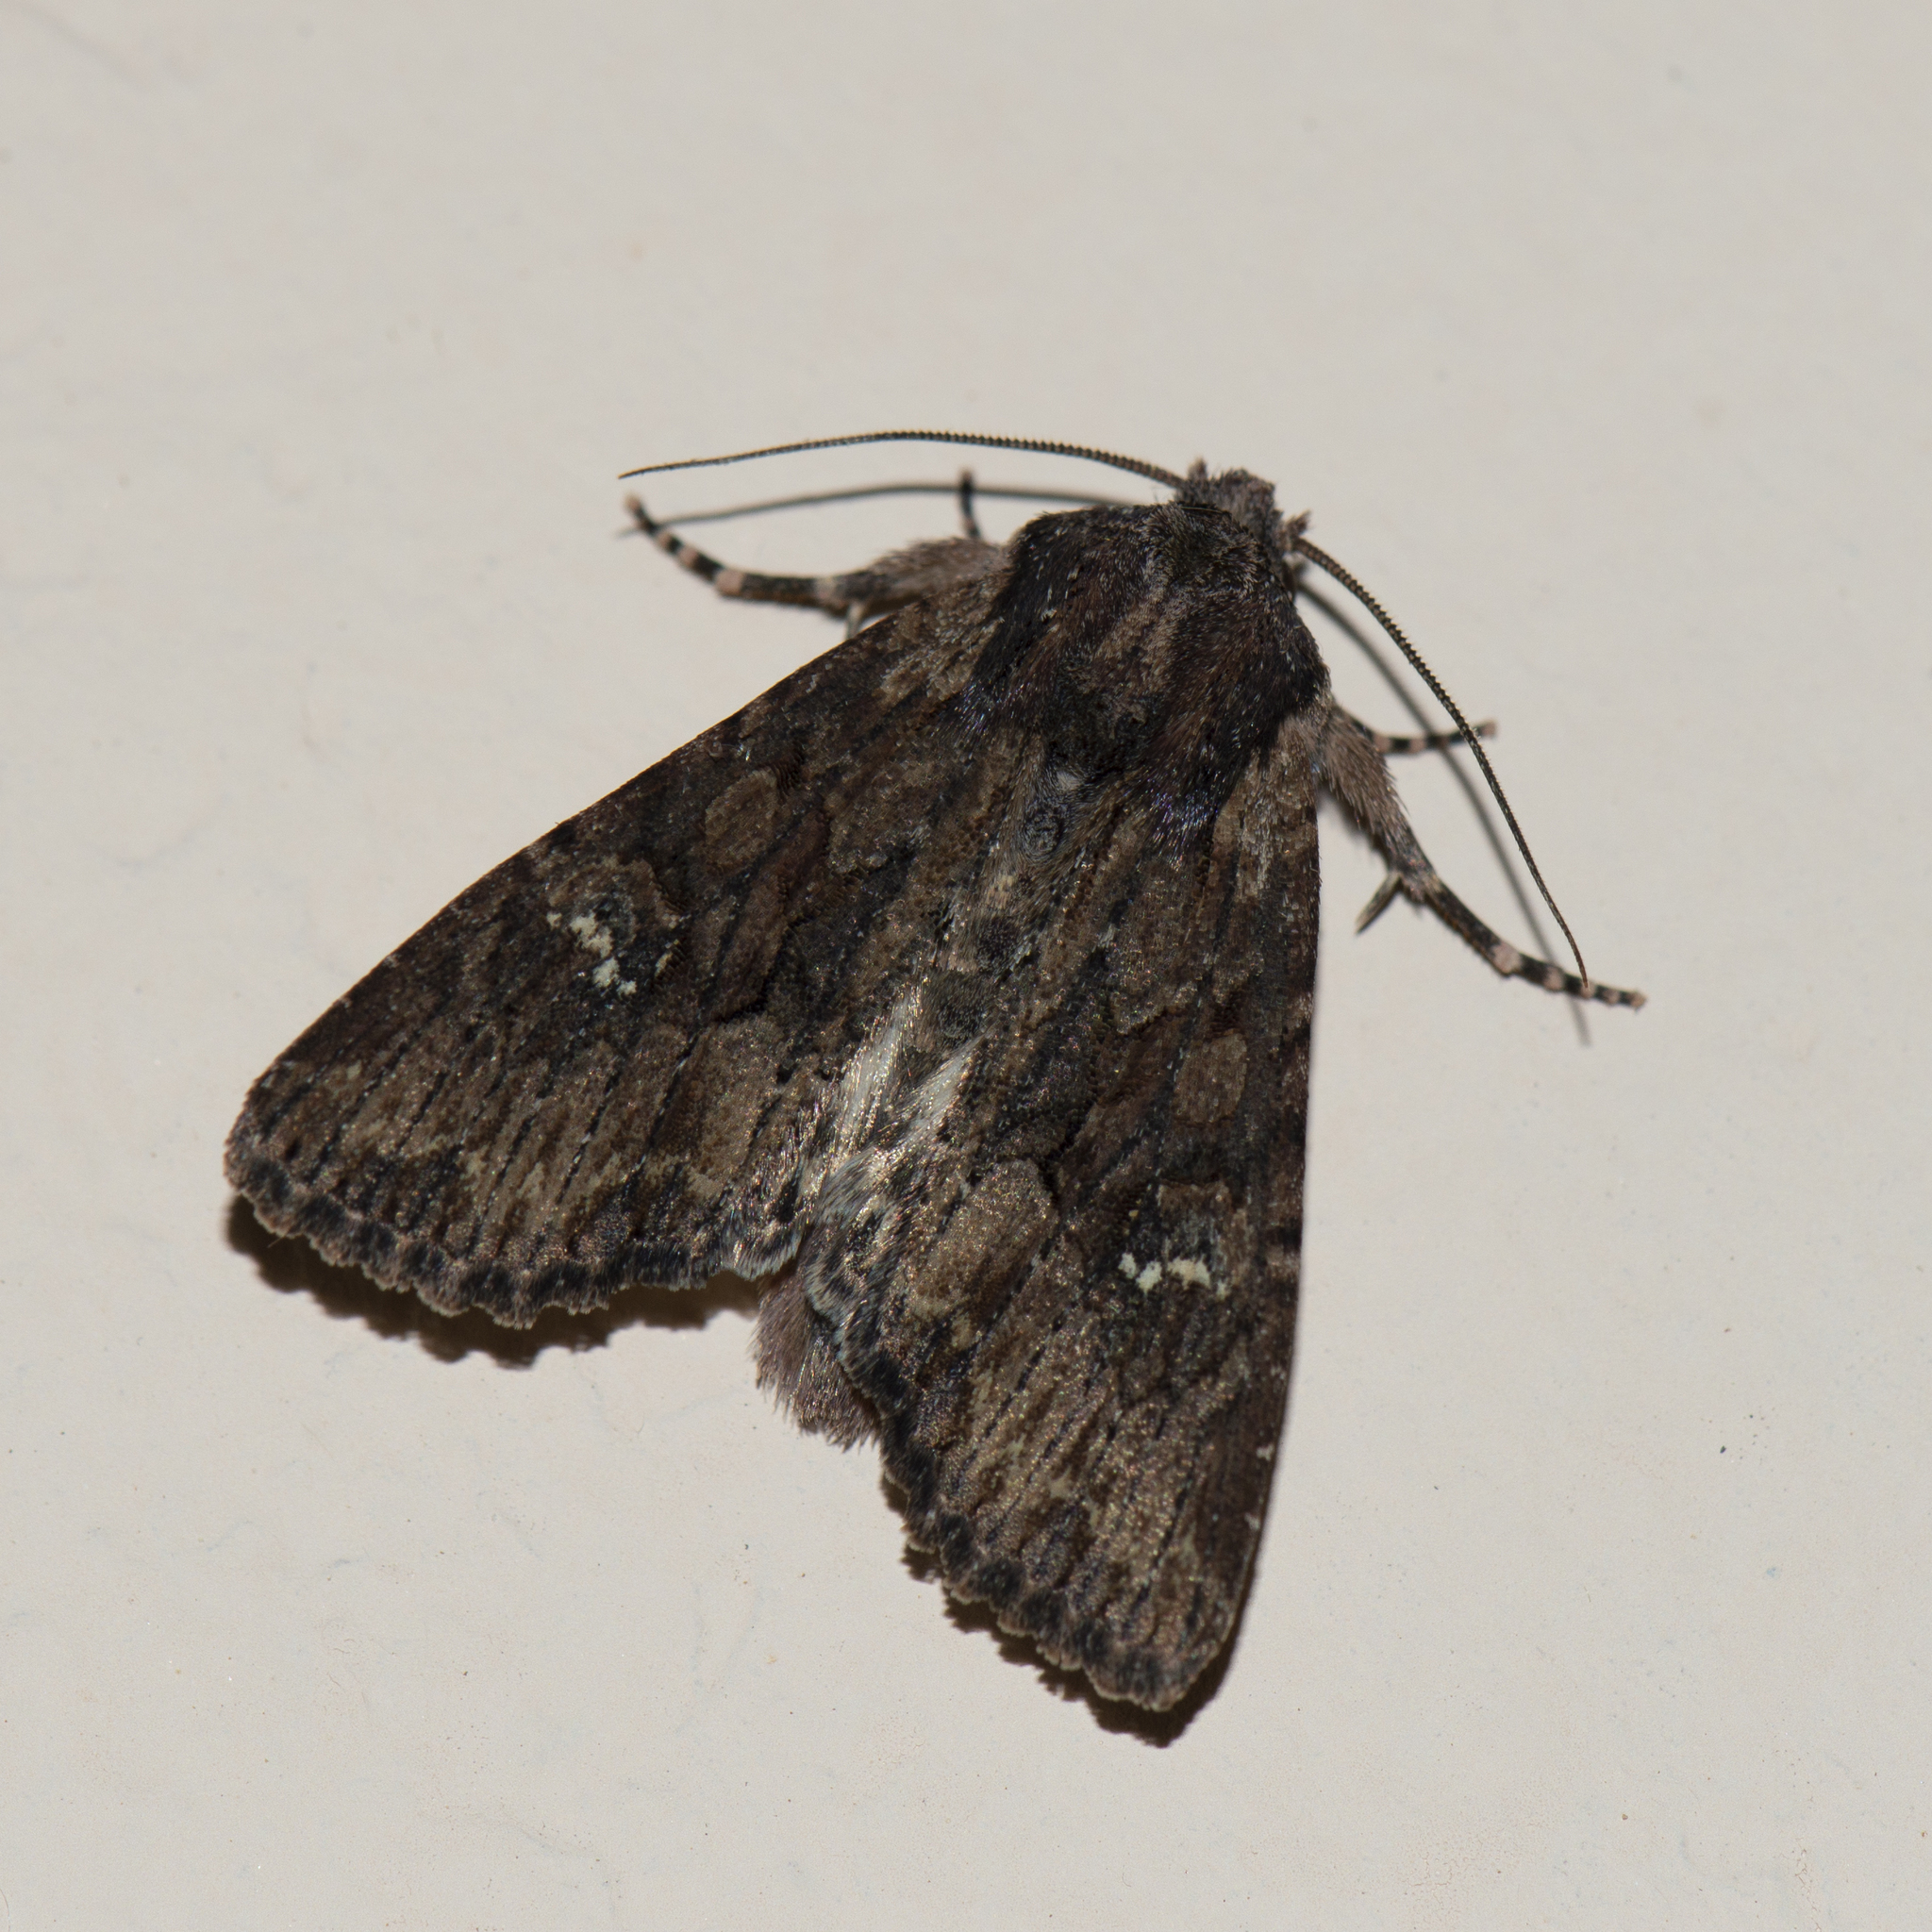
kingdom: Animalia
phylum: Arthropoda
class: Insecta
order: Lepidoptera
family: Noctuidae
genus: Mniotype
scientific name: Mniotype solieri
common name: Bedrule brocade
